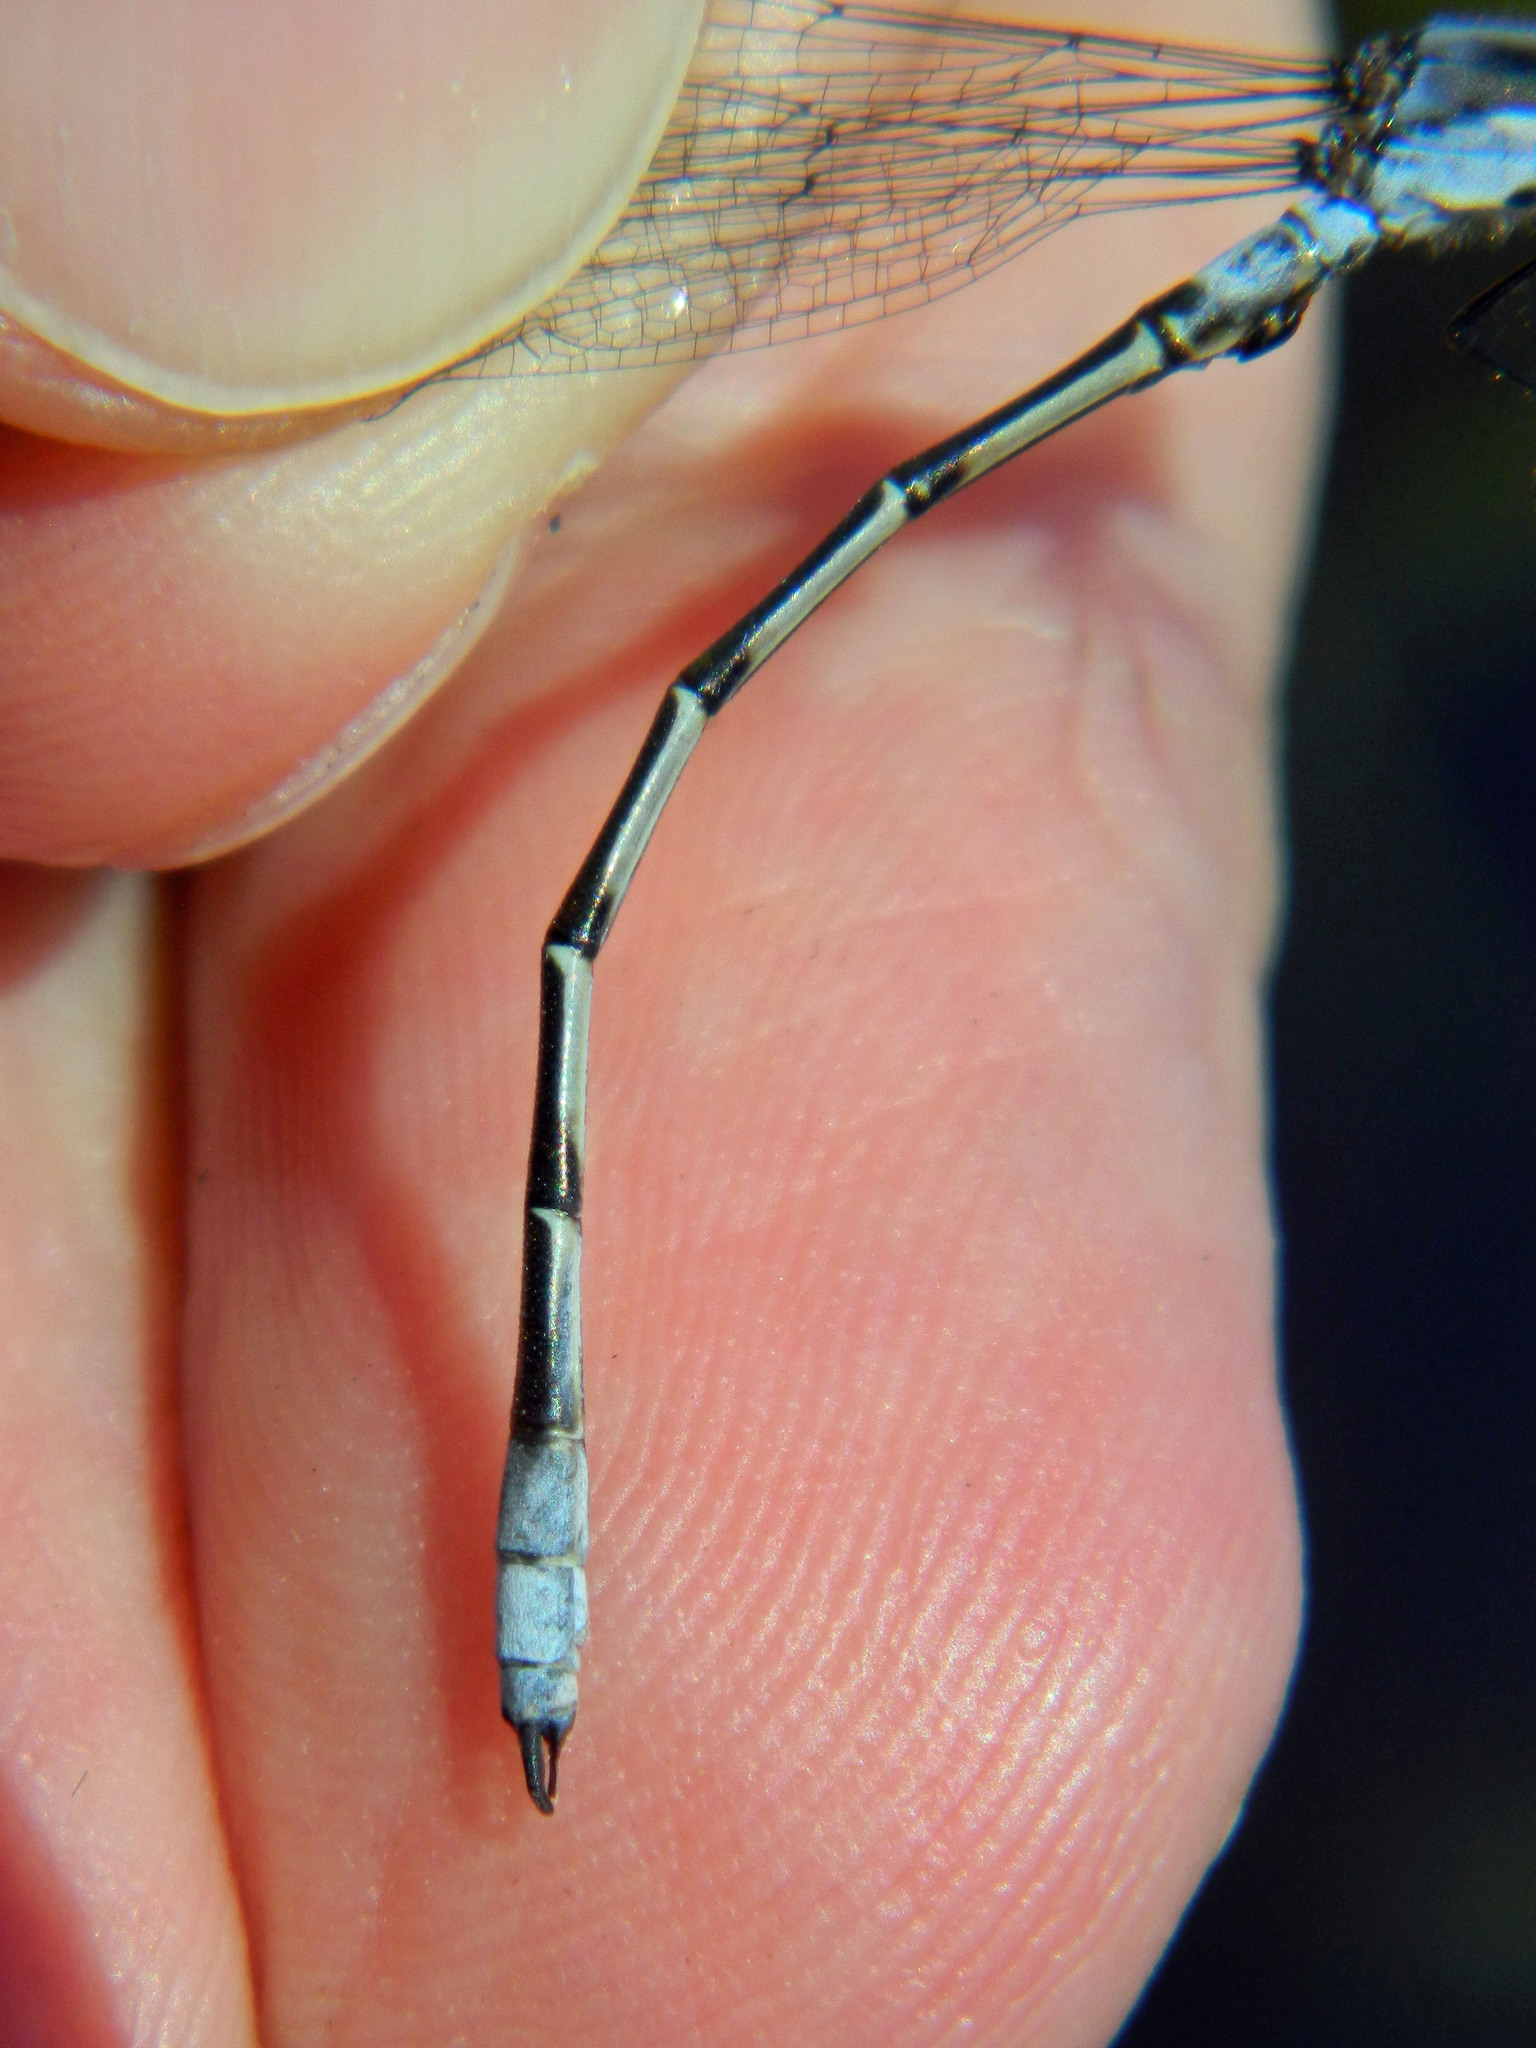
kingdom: Animalia
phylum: Arthropoda
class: Insecta
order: Odonata
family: Lestidae
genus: Lestes
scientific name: Lestes forcipatus
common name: Sweetflag spreadwing
